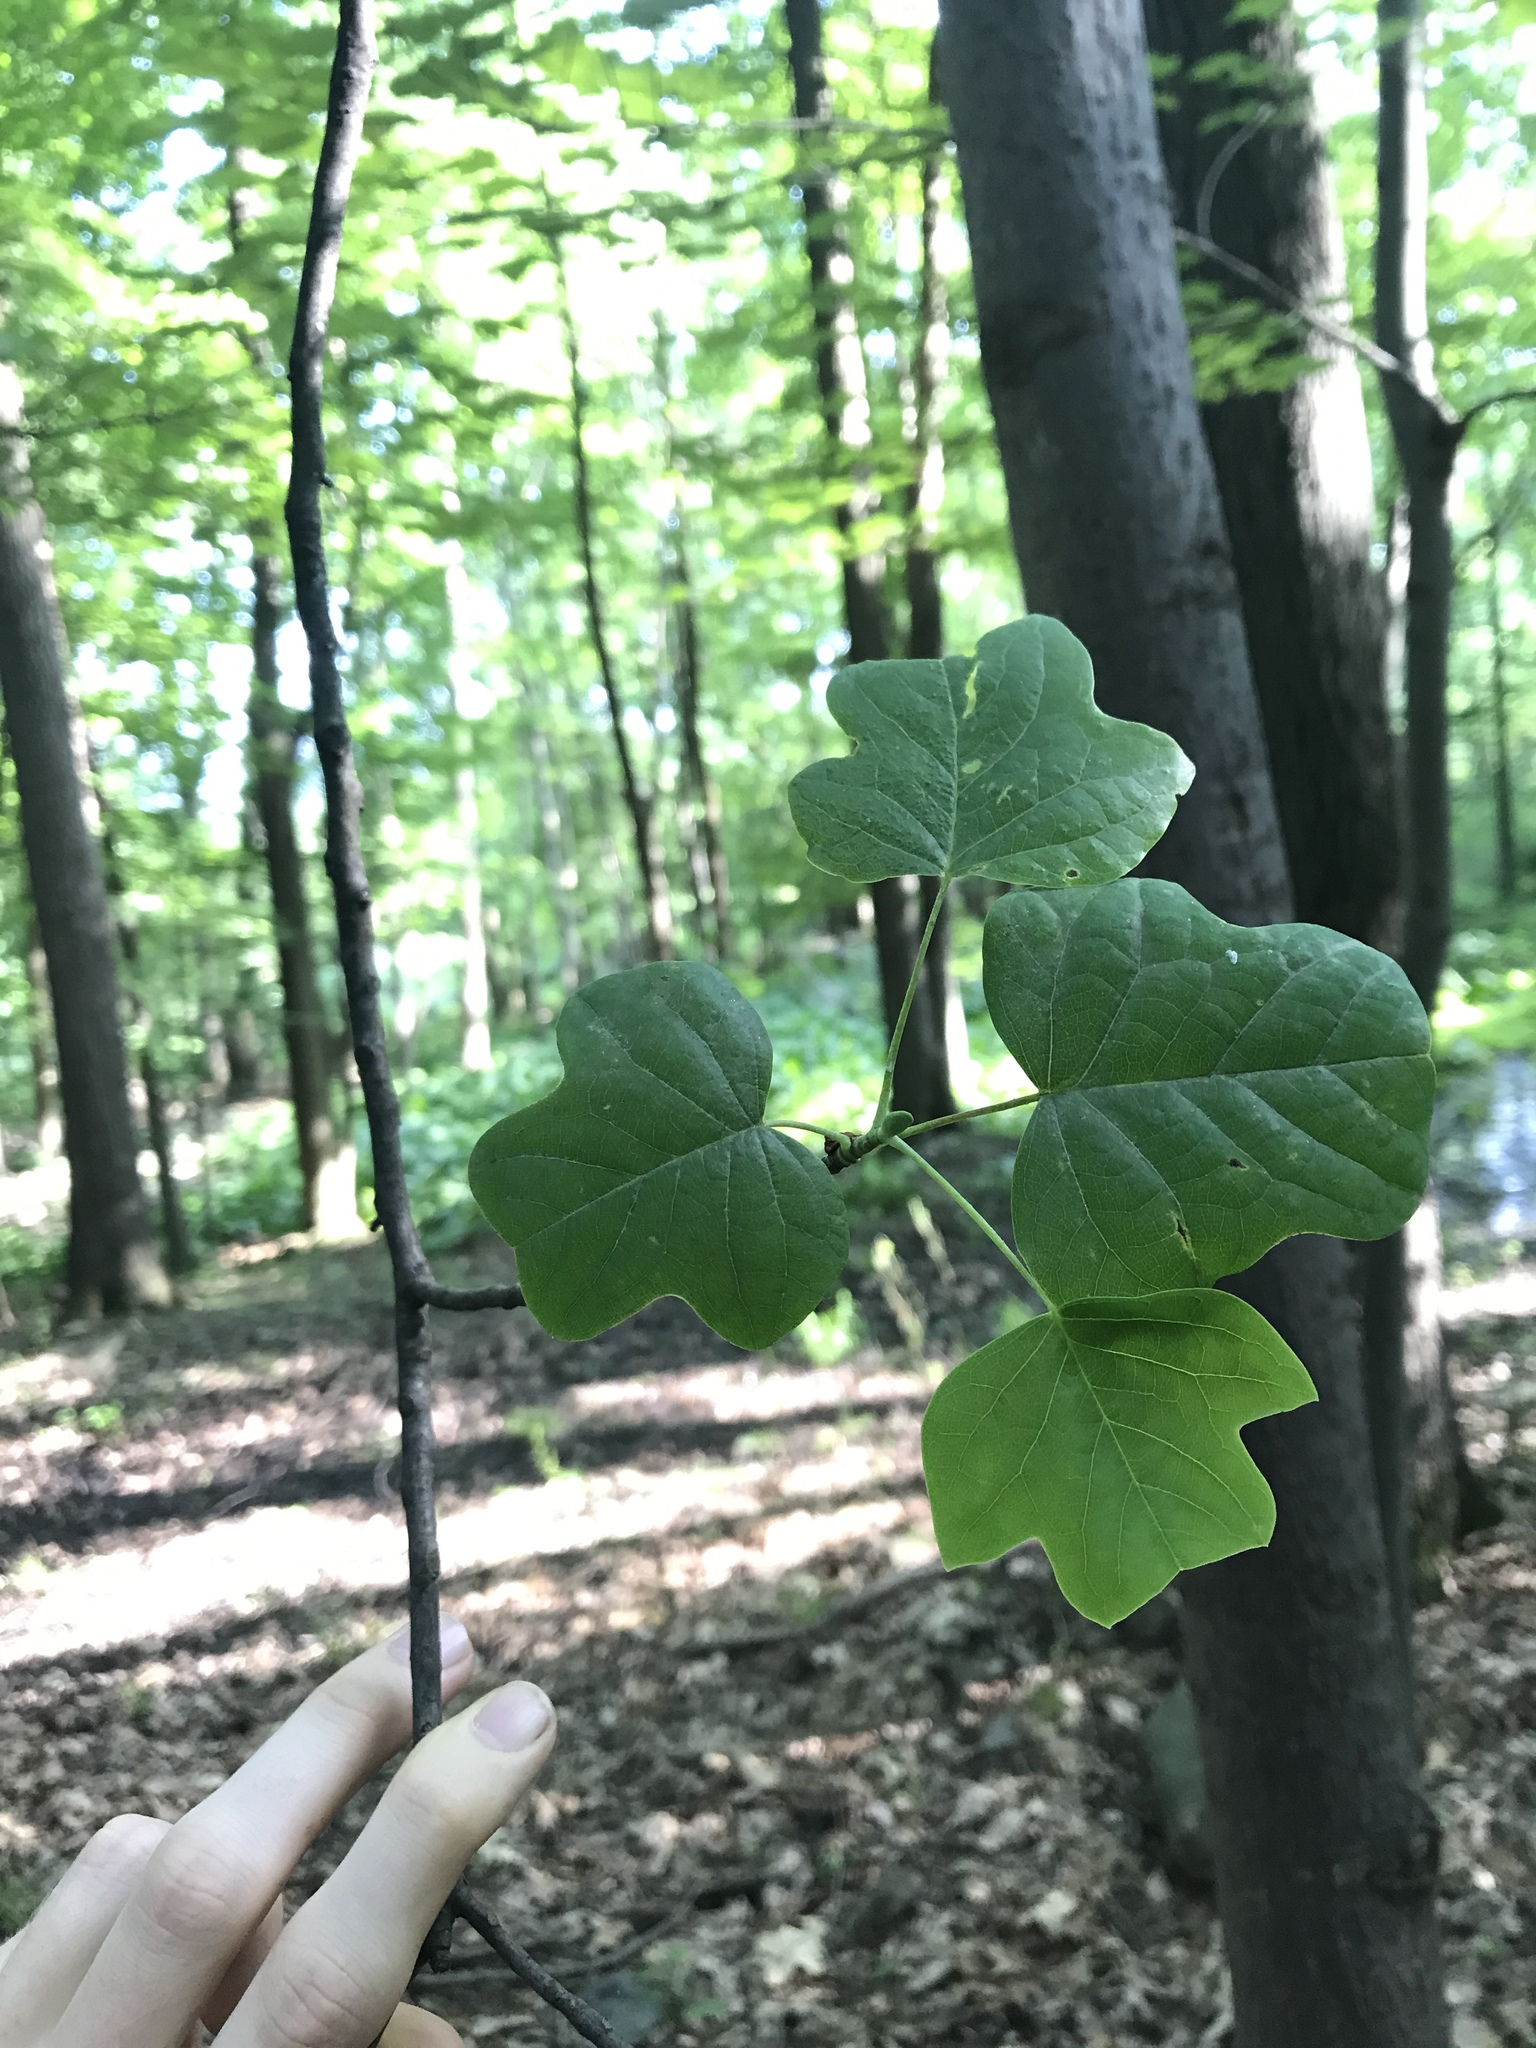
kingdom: Plantae
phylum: Tracheophyta
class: Magnoliopsida
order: Magnoliales
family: Magnoliaceae
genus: Liriodendron
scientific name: Liriodendron tulipifera
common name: Tulip tree
